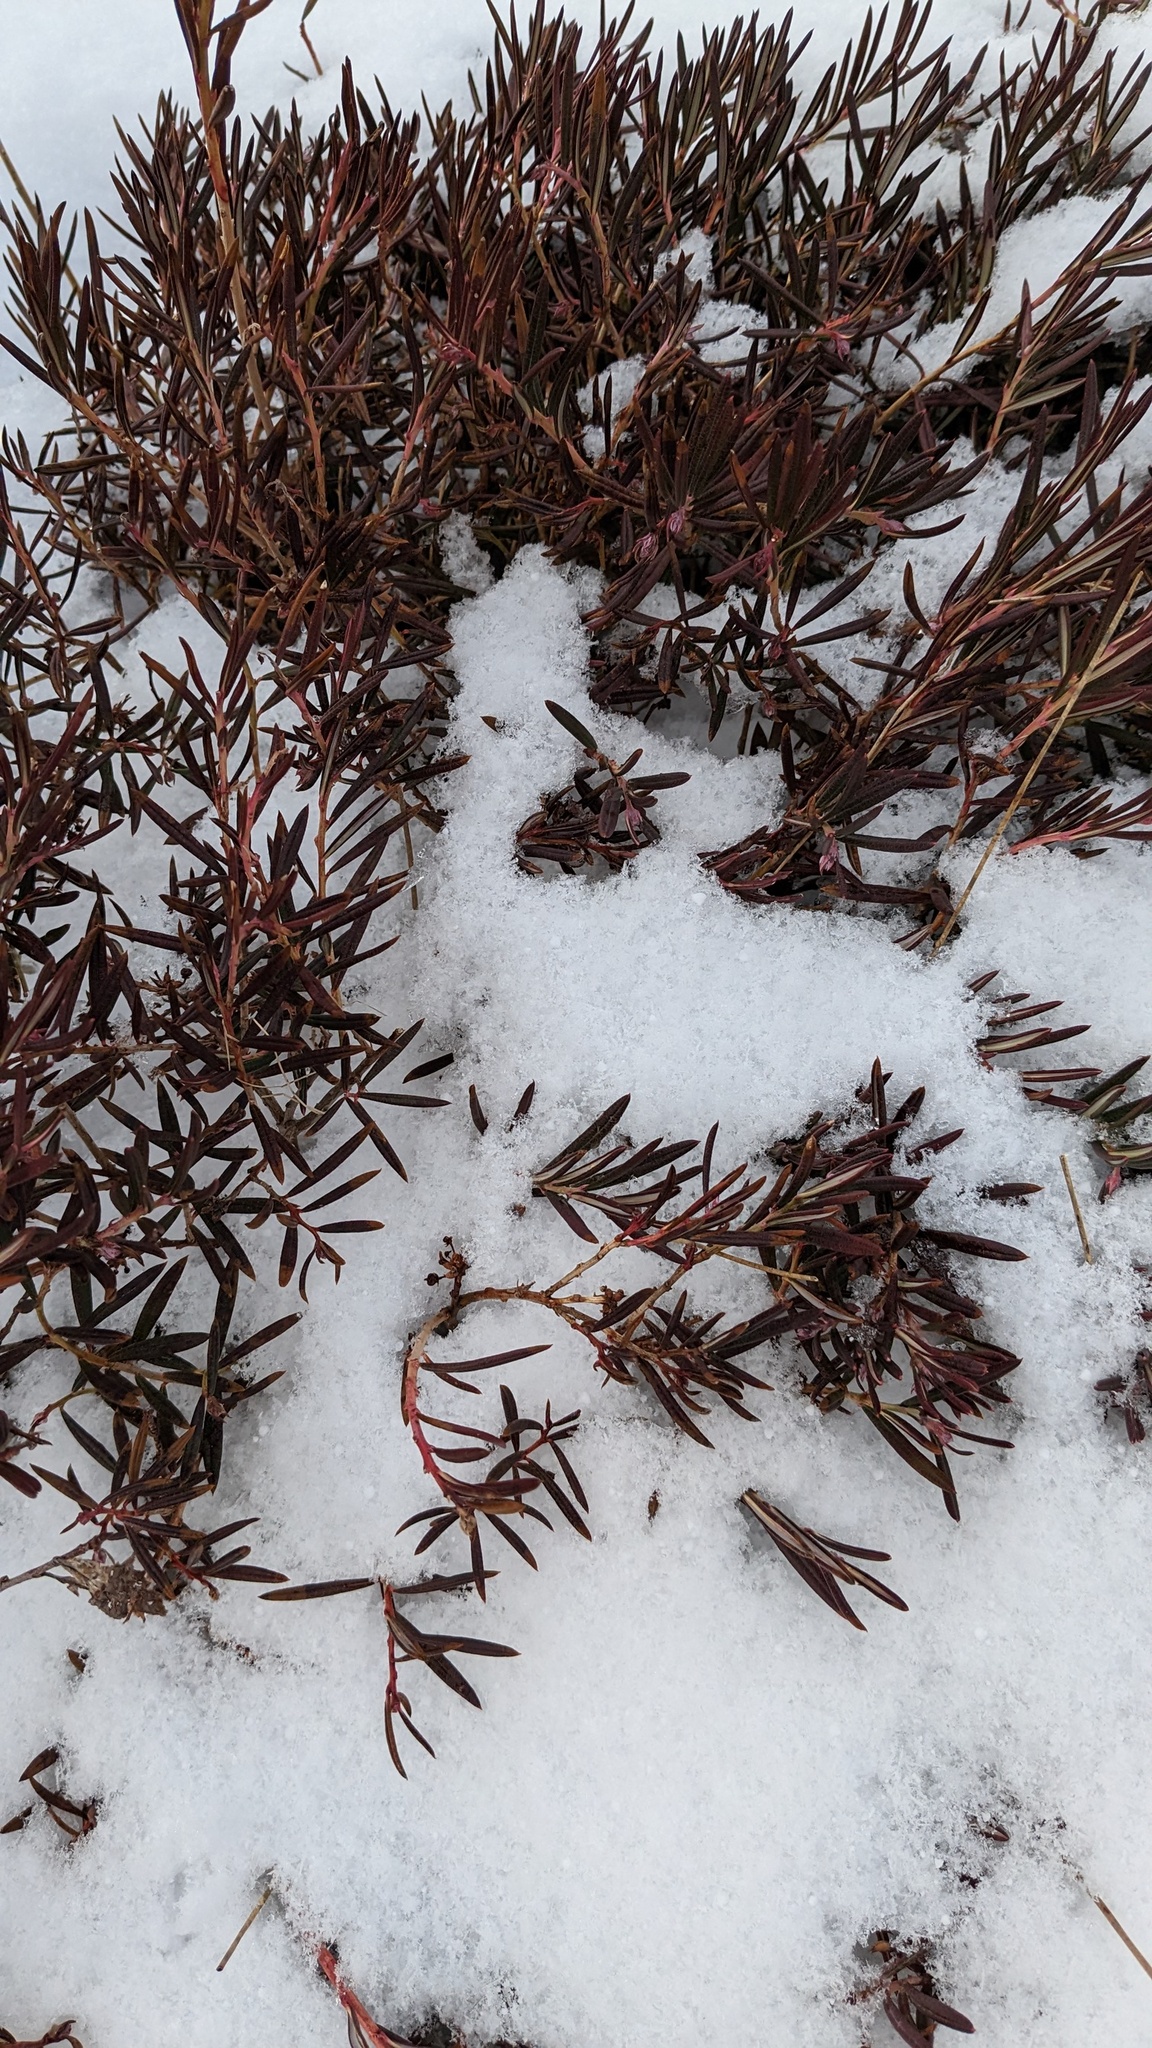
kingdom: Plantae
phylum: Tracheophyta
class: Magnoliopsida
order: Ericales
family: Ericaceae
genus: Andromeda
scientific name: Andromeda polifolia
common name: Bog-rosemary
